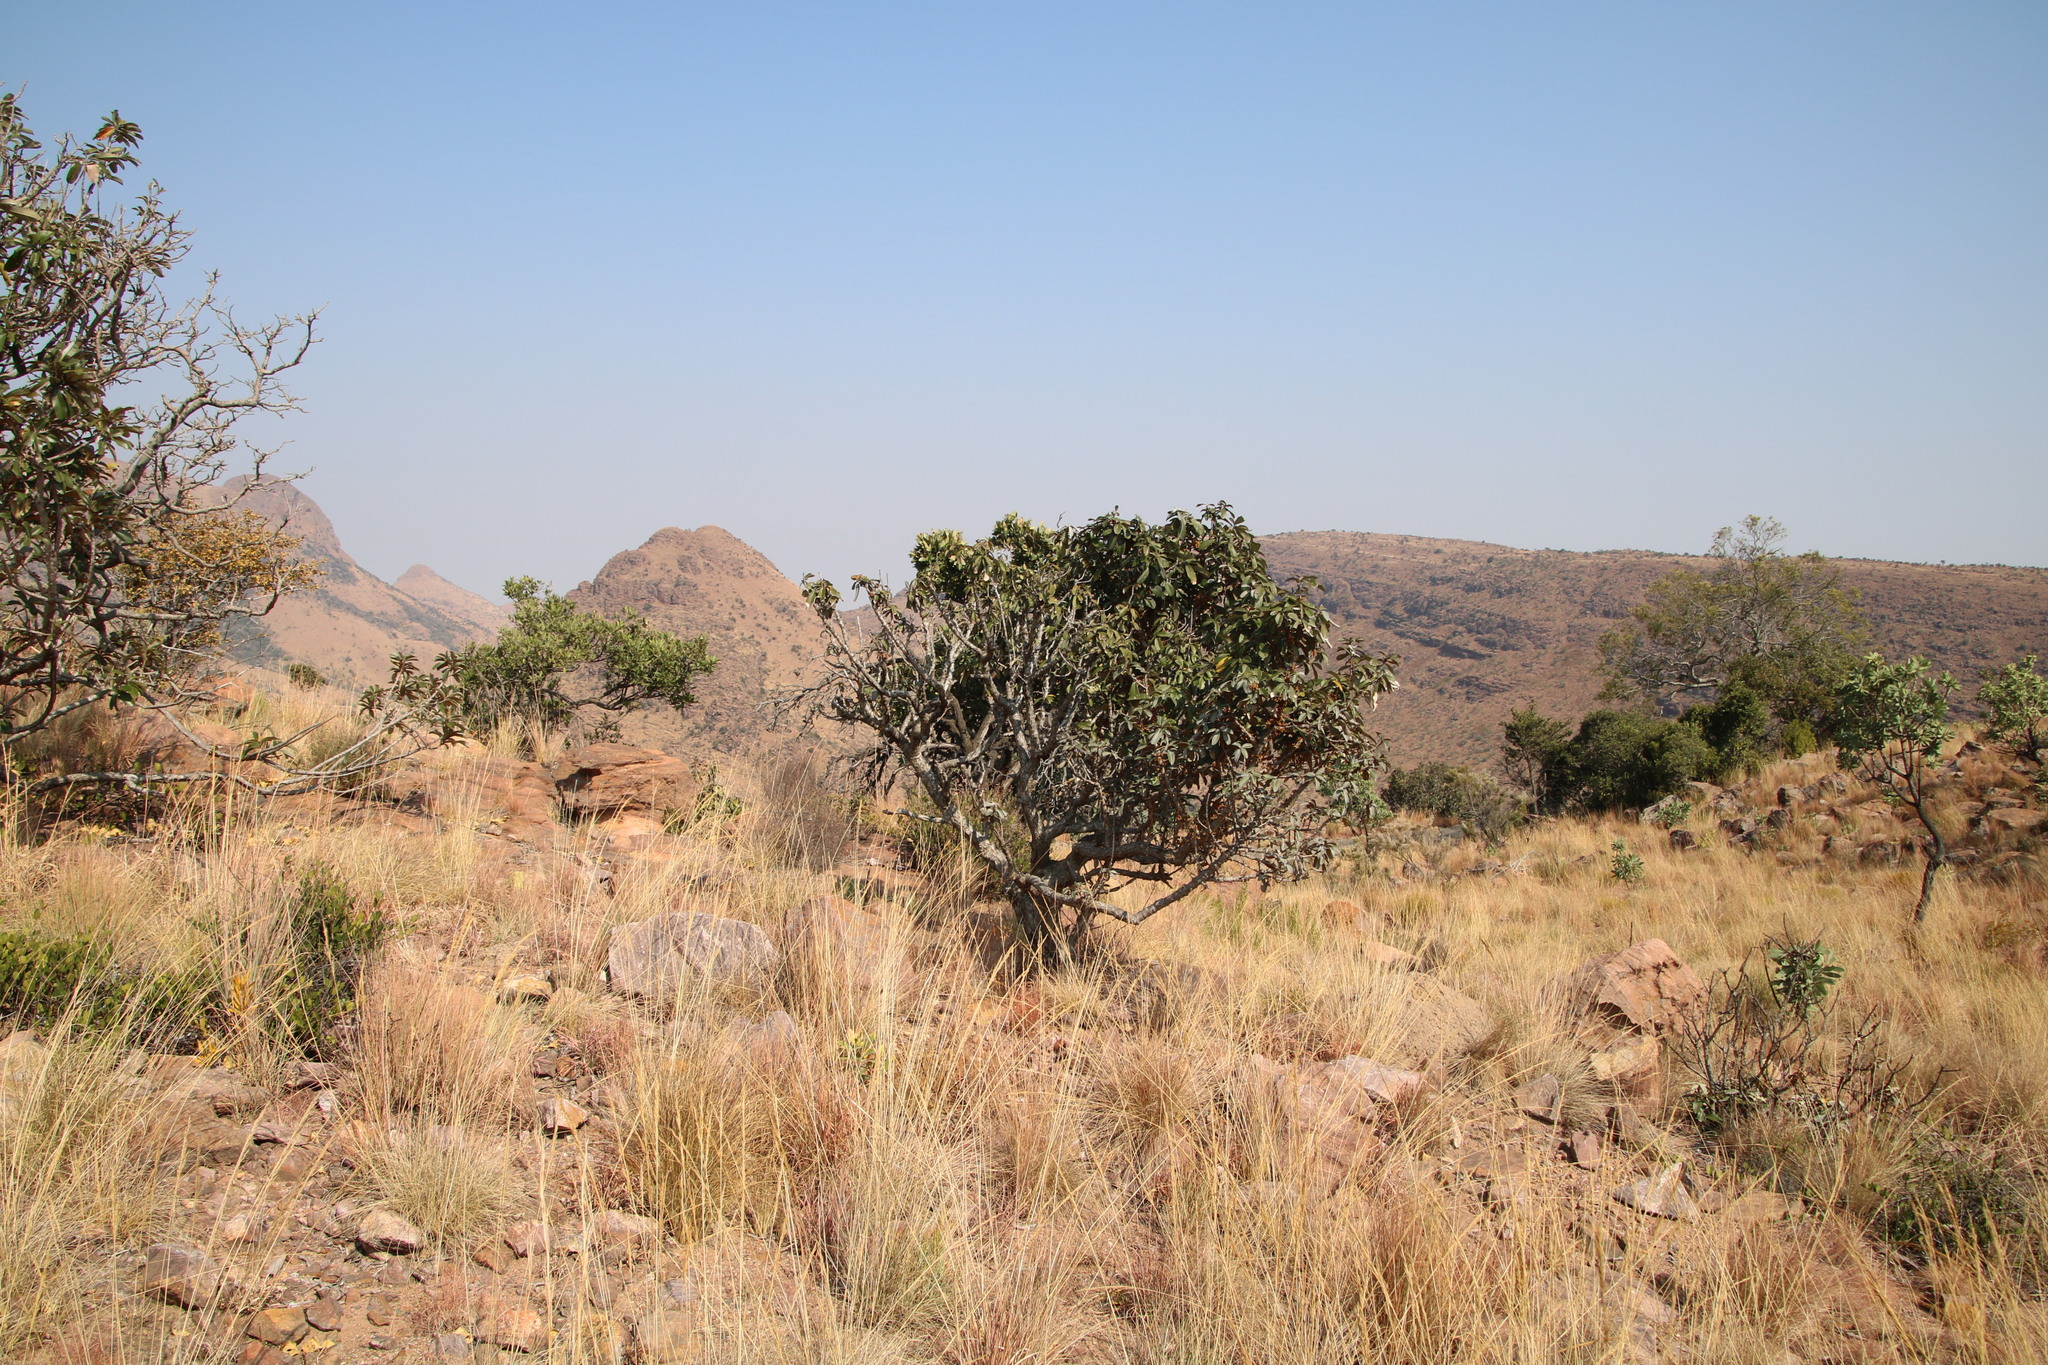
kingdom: Plantae
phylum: Tracheophyta
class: Magnoliopsida
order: Ericales
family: Sapotaceae
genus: Englerophytum
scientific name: Englerophytum magalismontanum
